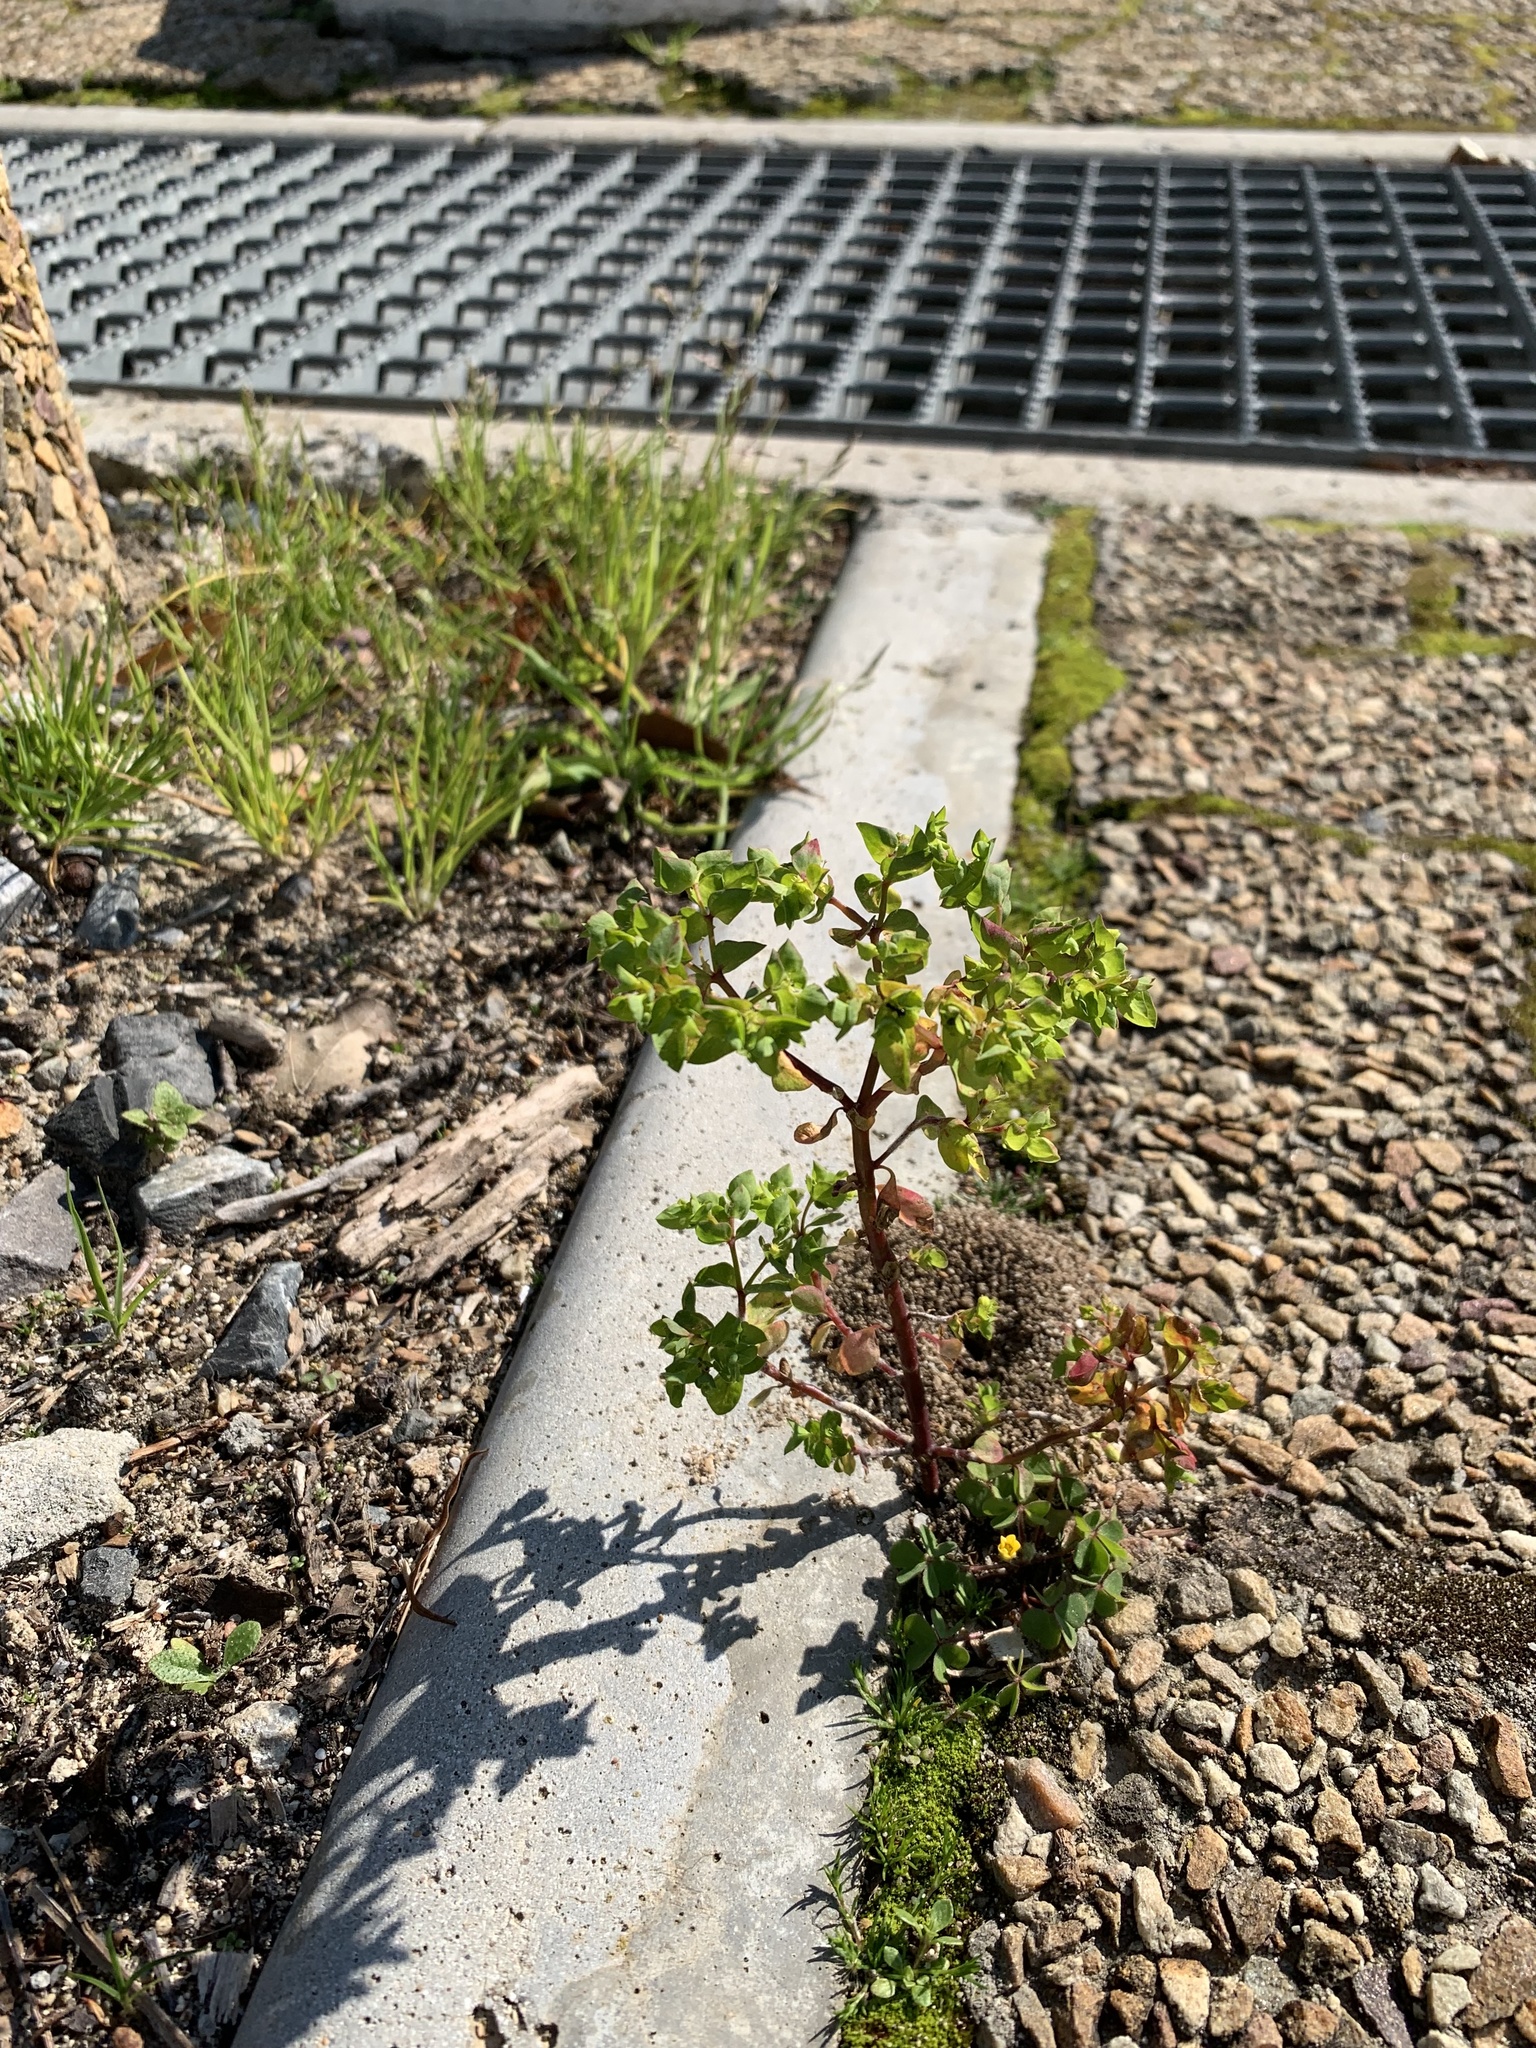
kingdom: Plantae
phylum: Tracheophyta
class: Magnoliopsida
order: Malpighiales
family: Euphorbiaceae
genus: Euphorbia
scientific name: Euphorbia peplus
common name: Petty spurge
